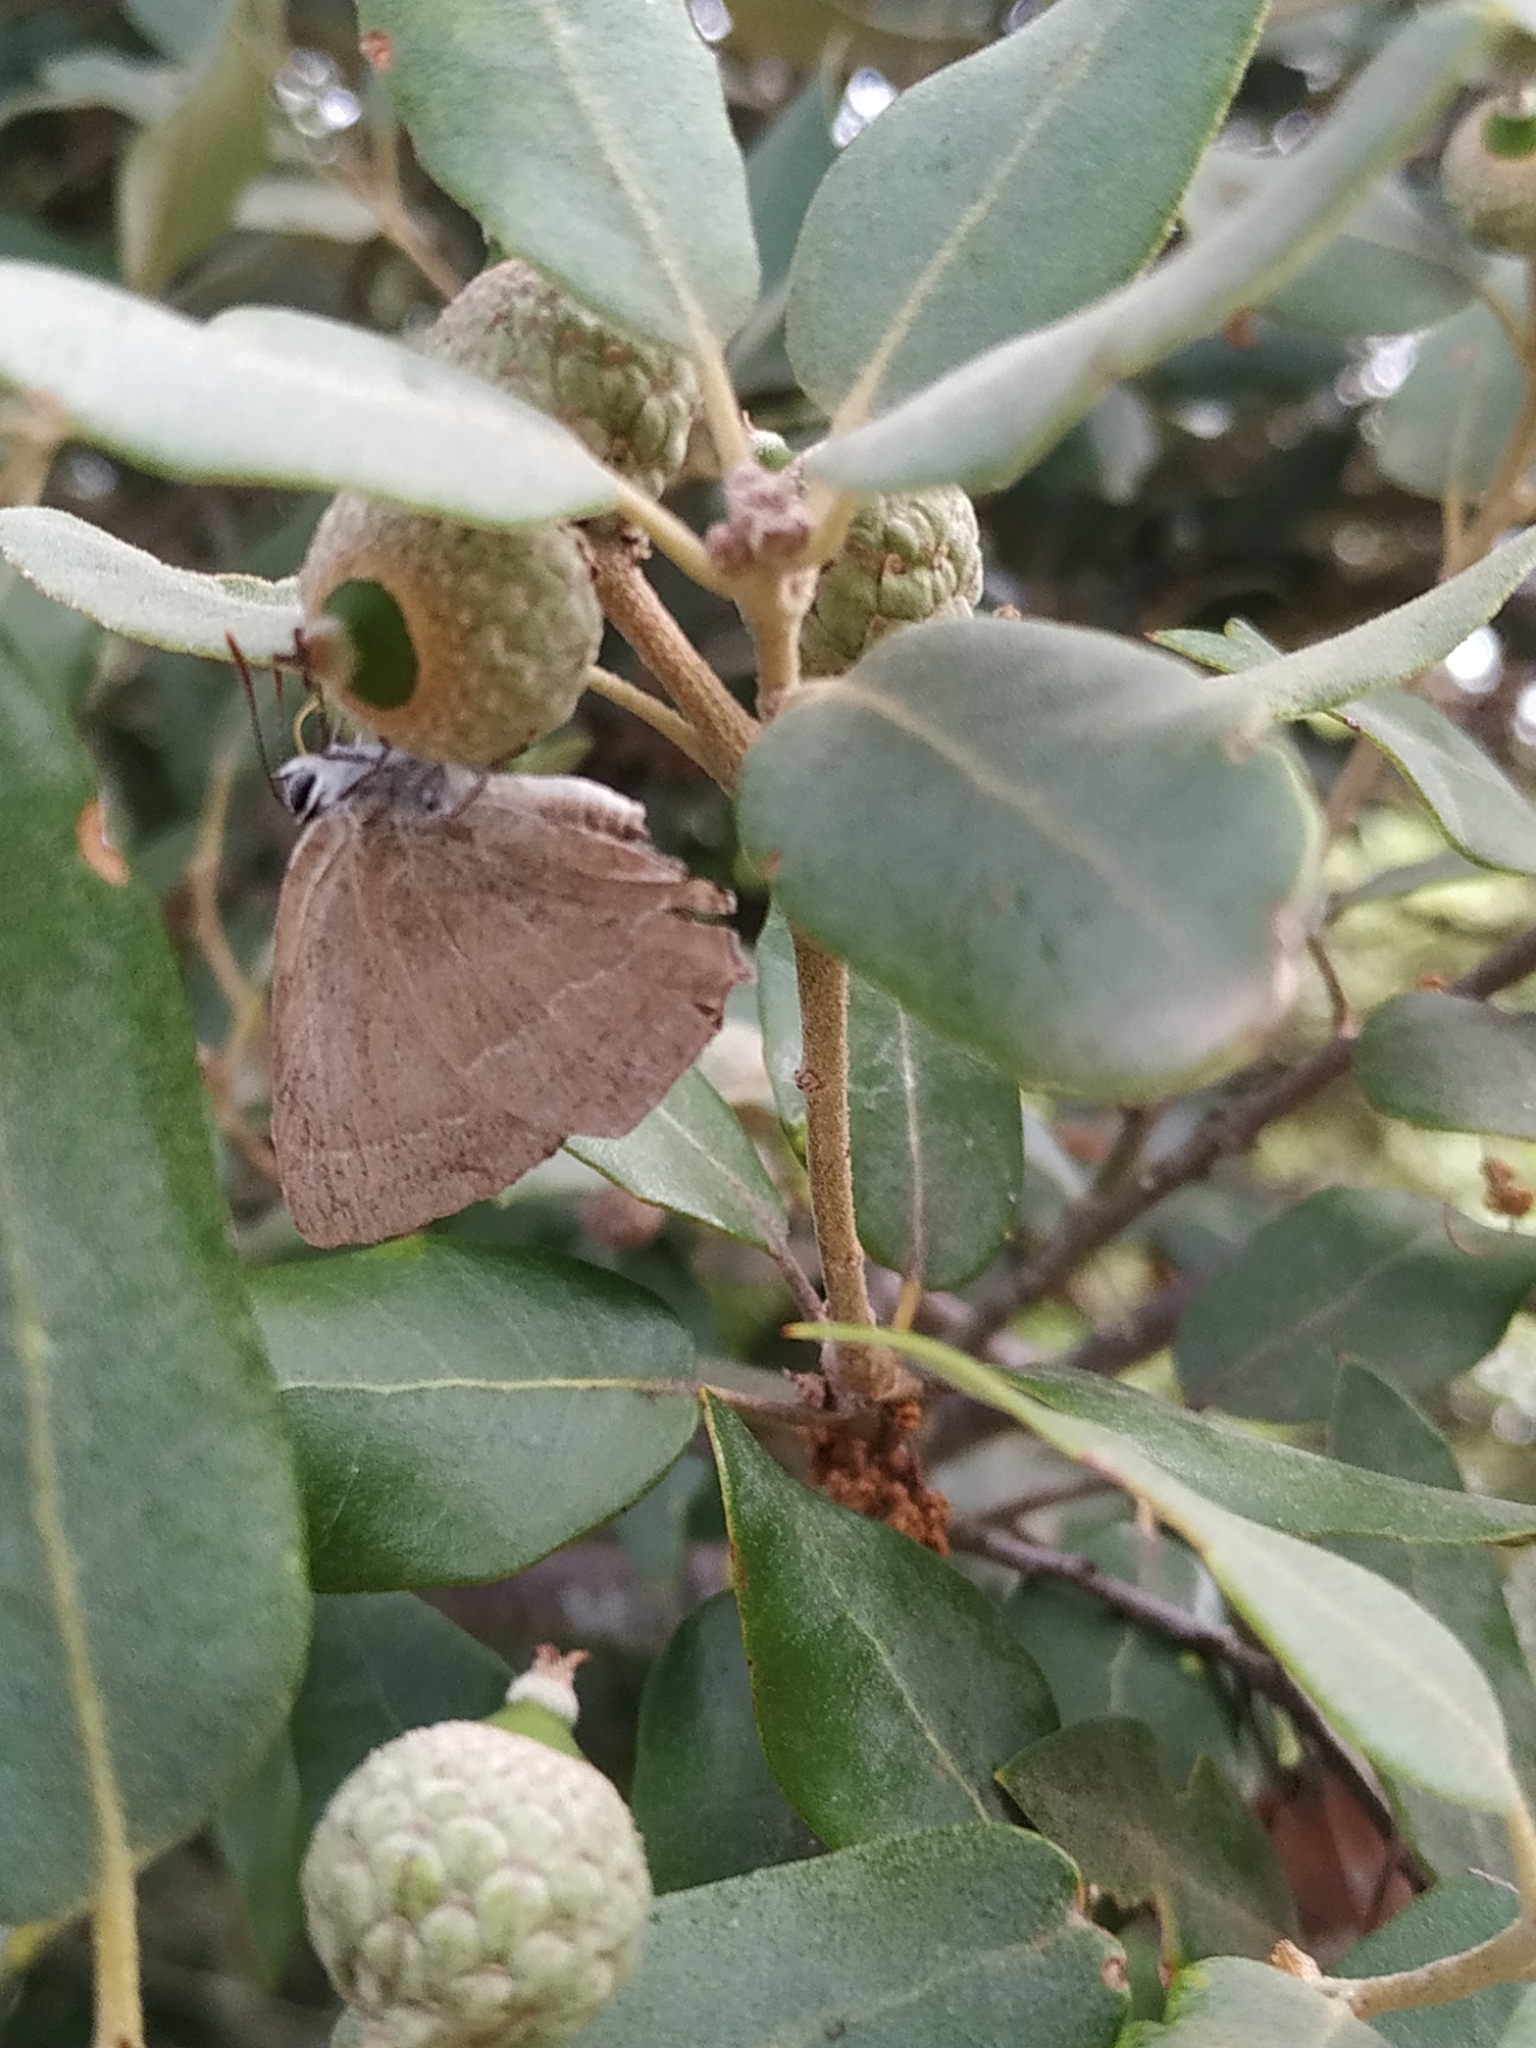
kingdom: Animalia
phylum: Arthropoda
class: Insecta
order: Lepidoptera
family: Lycaenidae
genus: Quercusia
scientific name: Quercusia quercus
